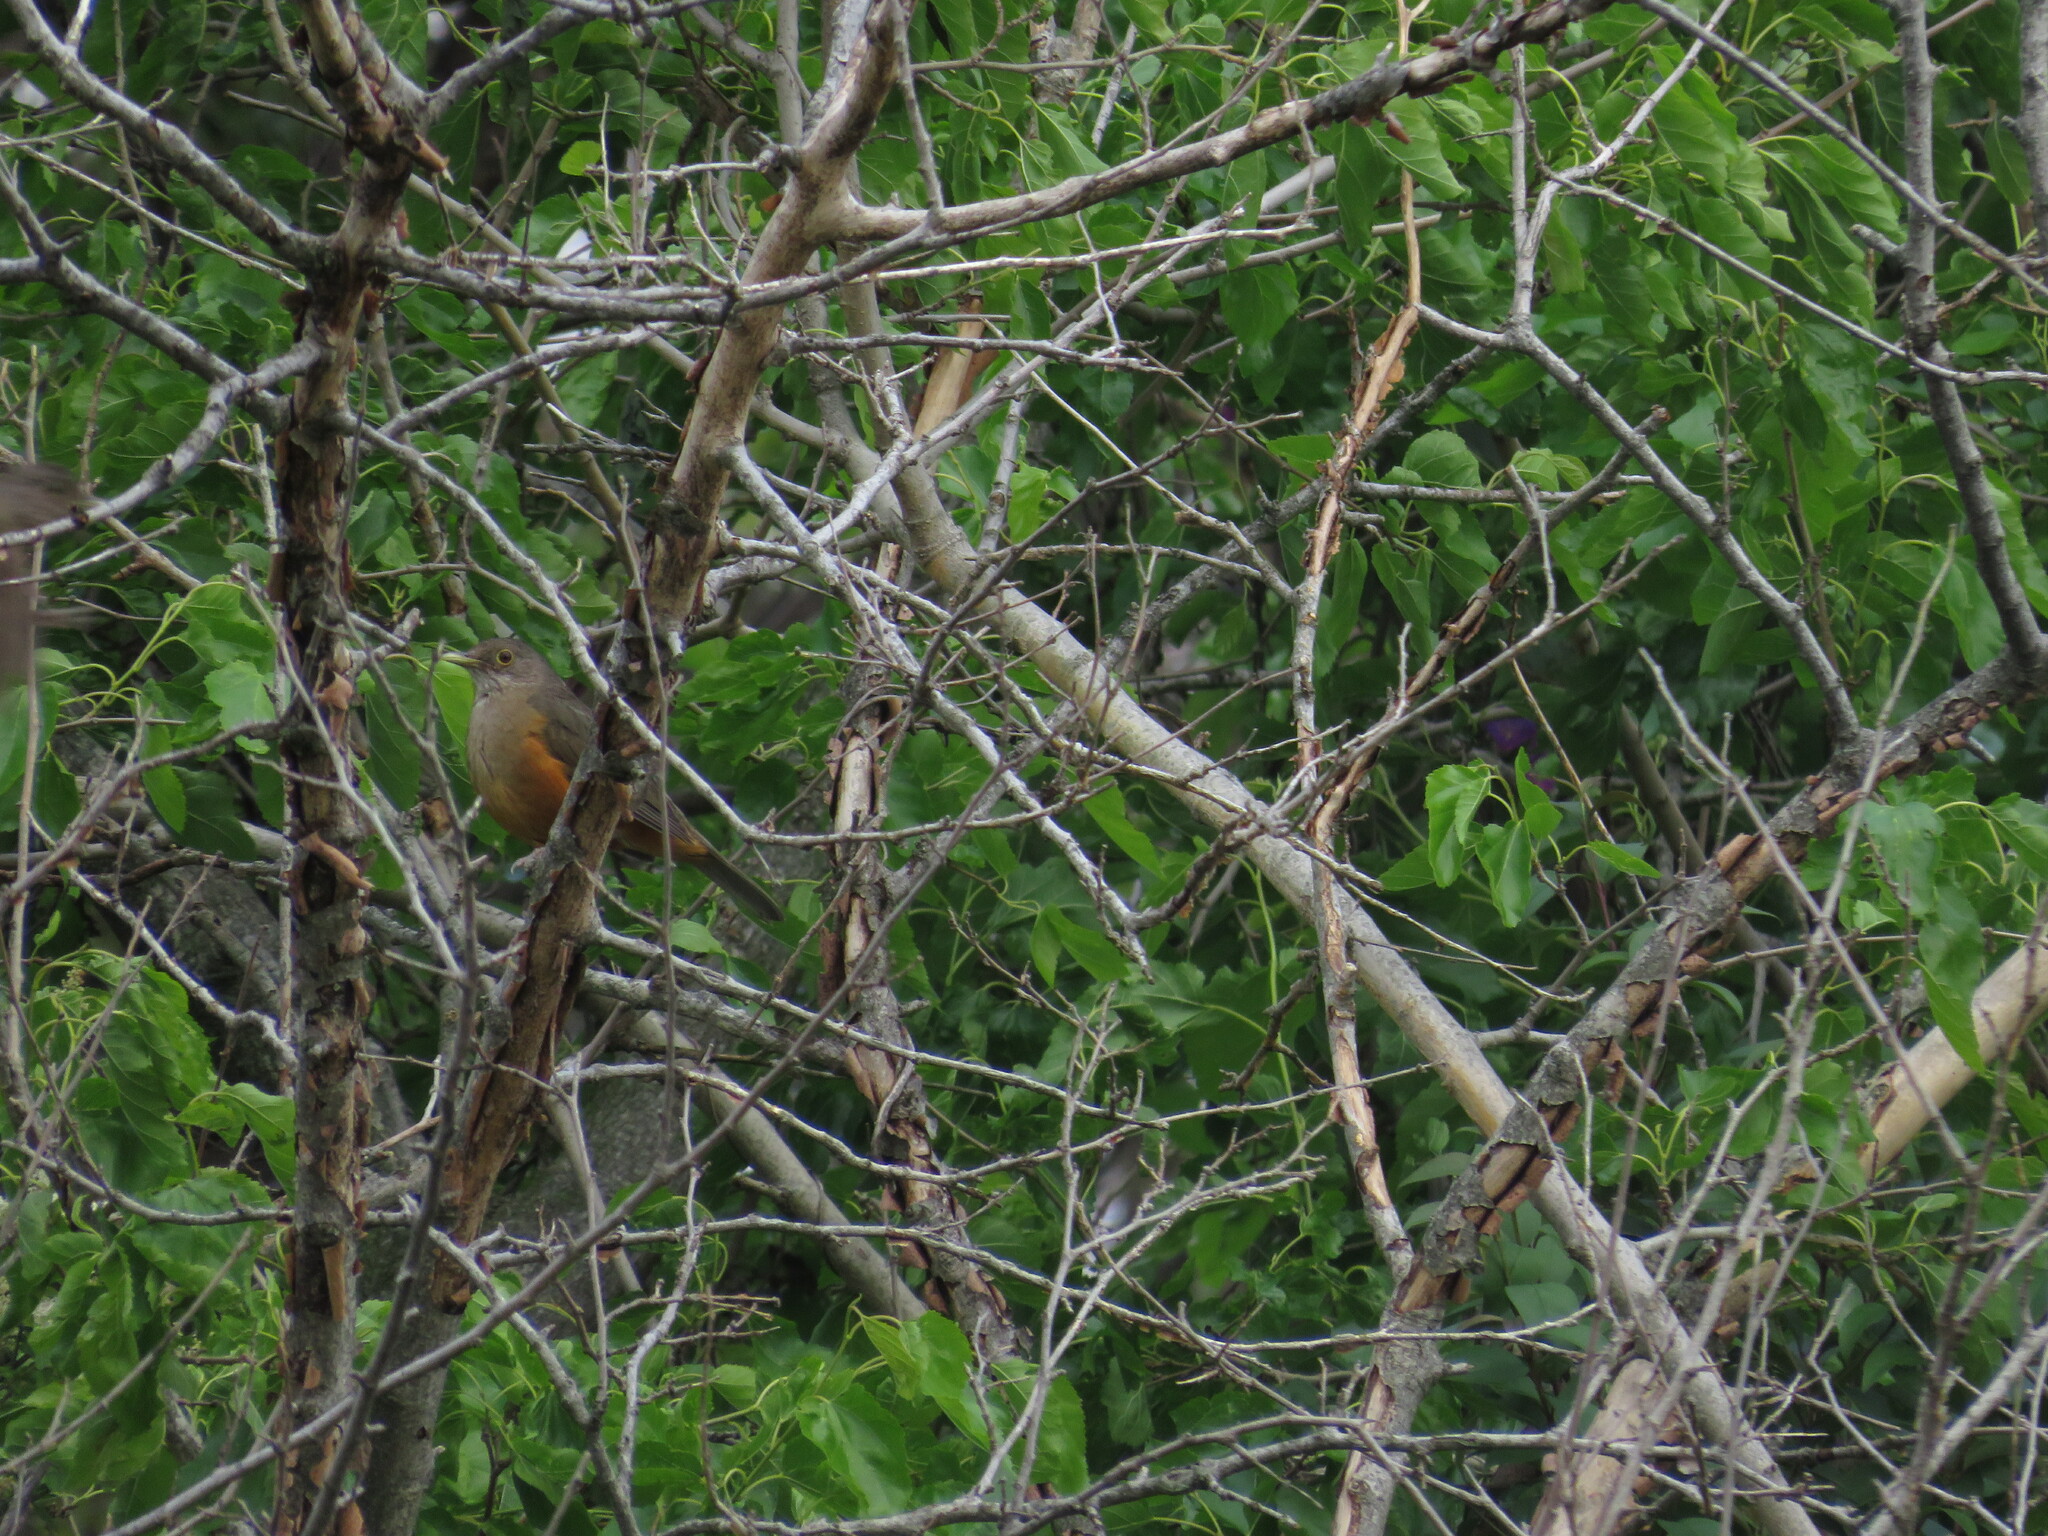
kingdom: Animalia
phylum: Chordata
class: Aves
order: Passeriformes
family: Turdidae
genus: Turdus
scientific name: Turdus rufiventris
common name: Rufous-bellied thrush
